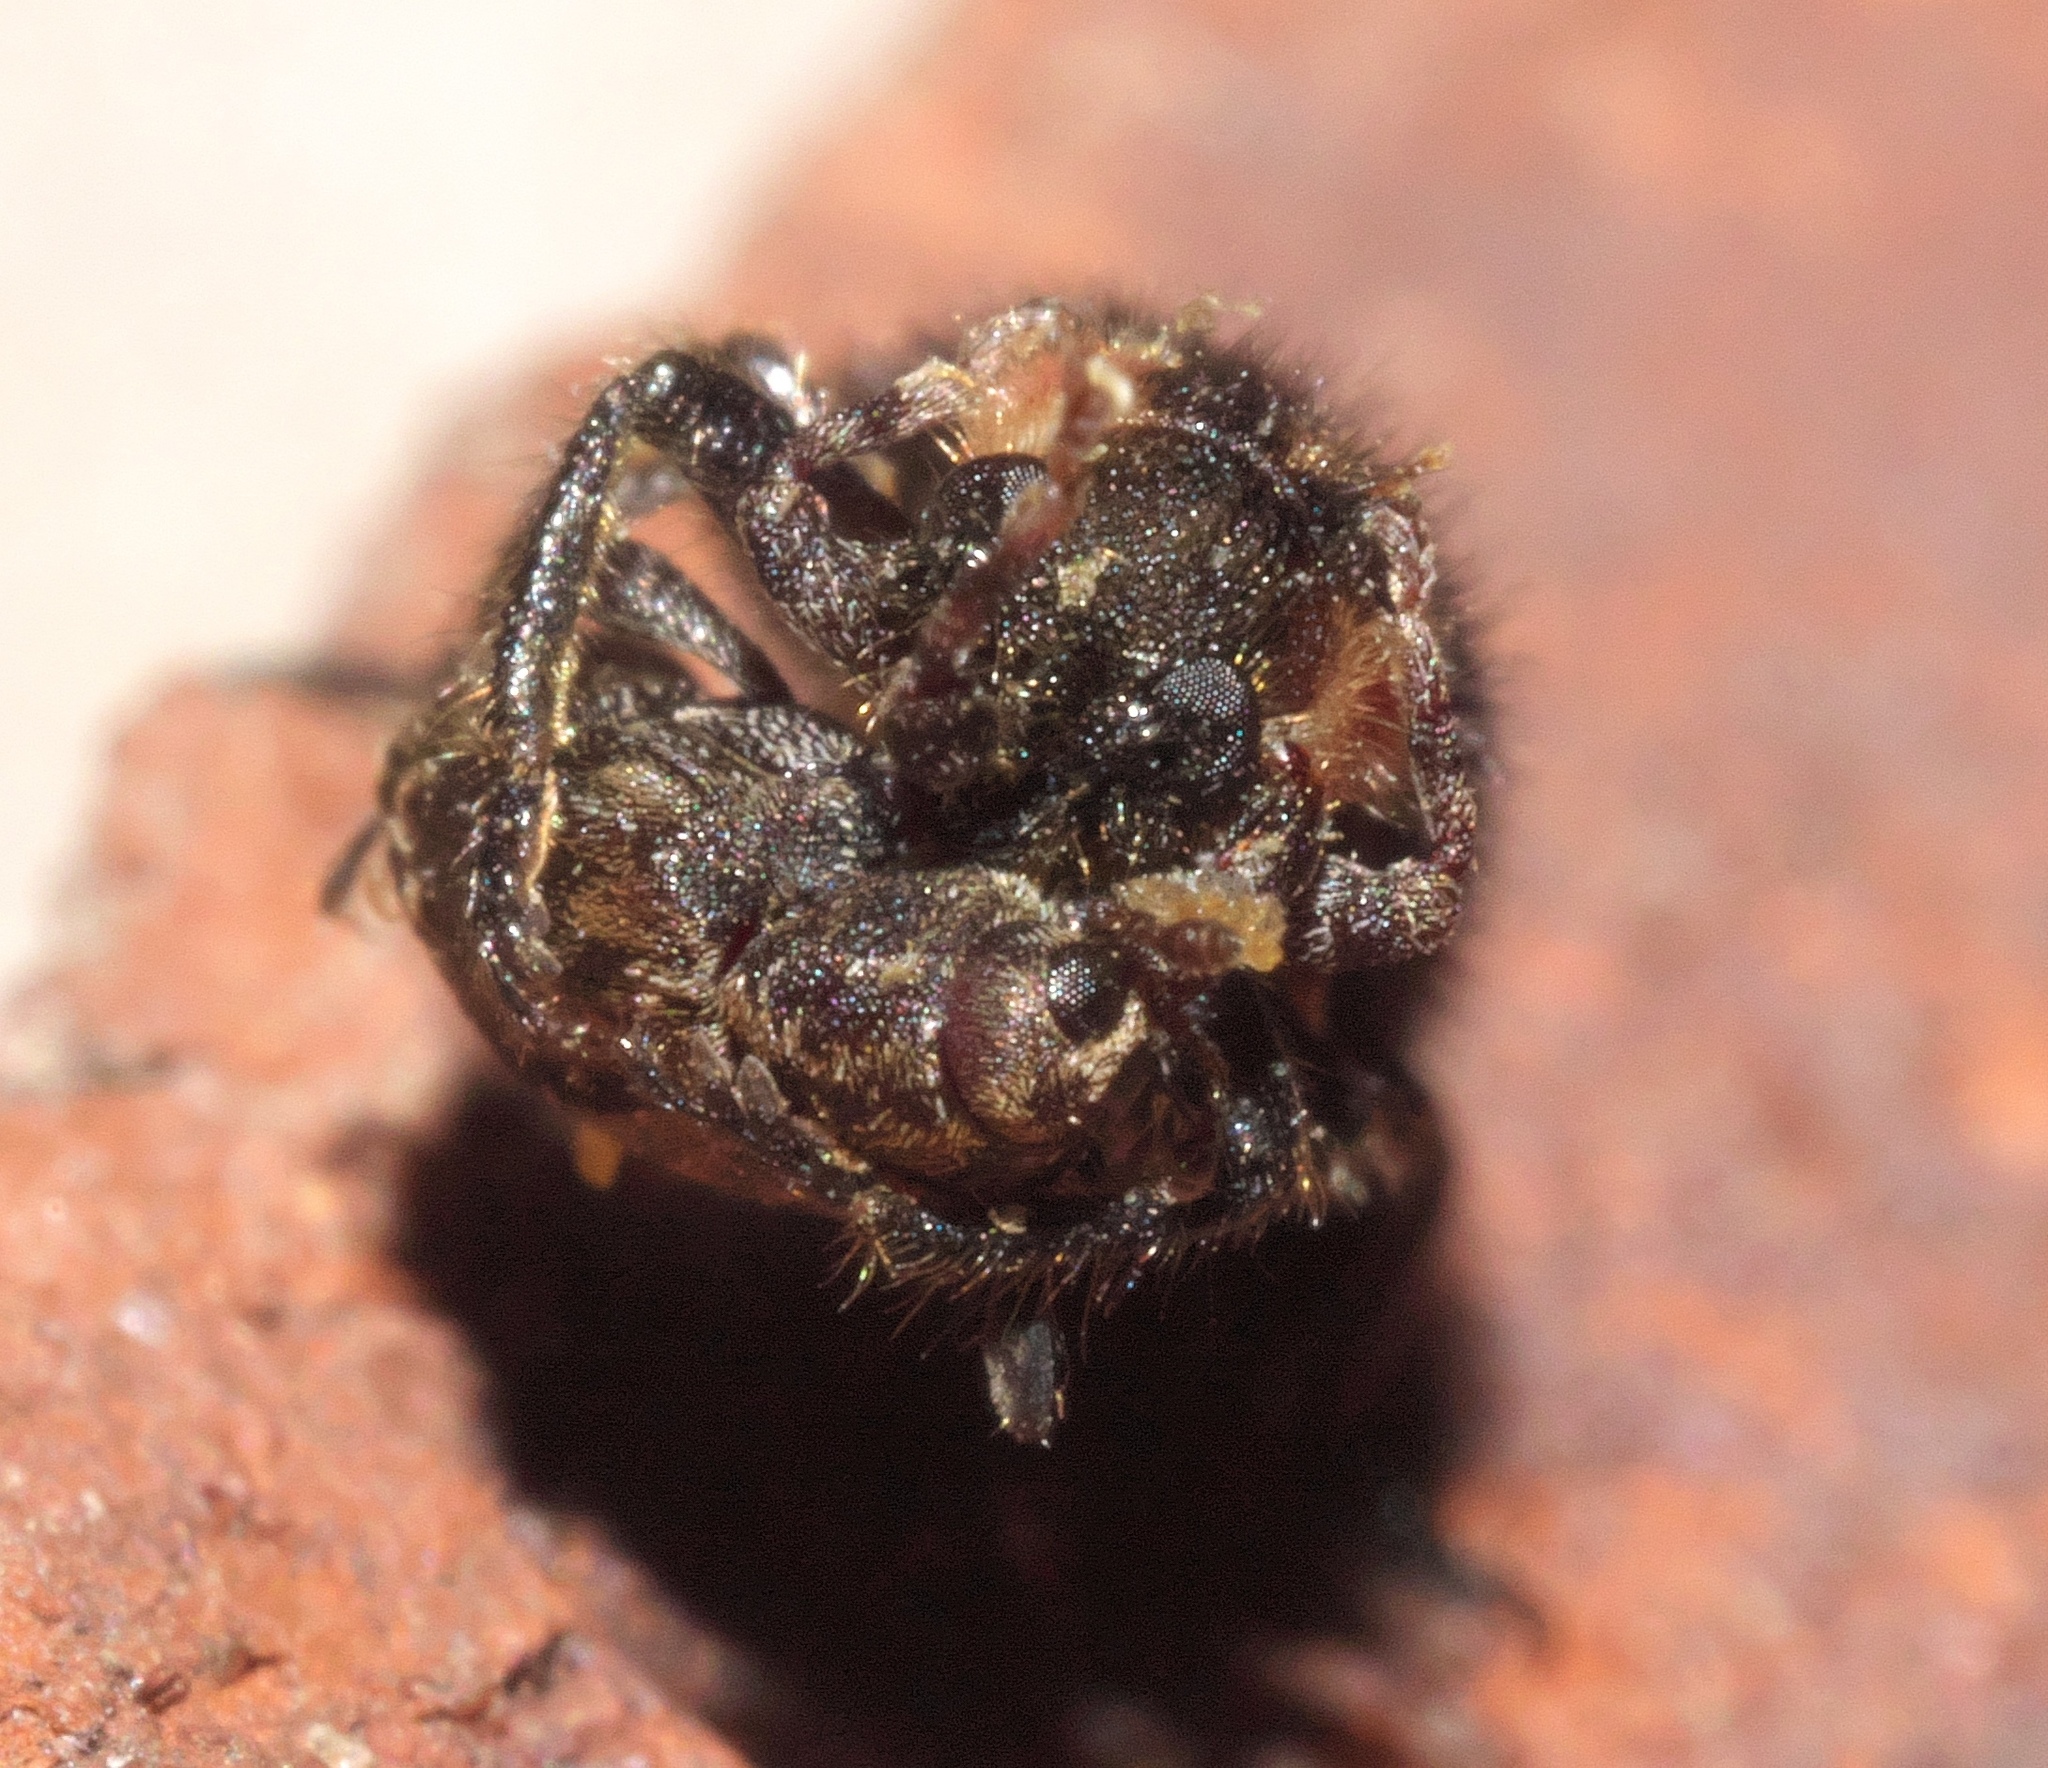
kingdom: Animalia
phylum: Arthropoda
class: Insecta
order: Coleoptera
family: Cleridae
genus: Chariessa
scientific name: Chariessa pilosa
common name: Pilose checkered beetle
